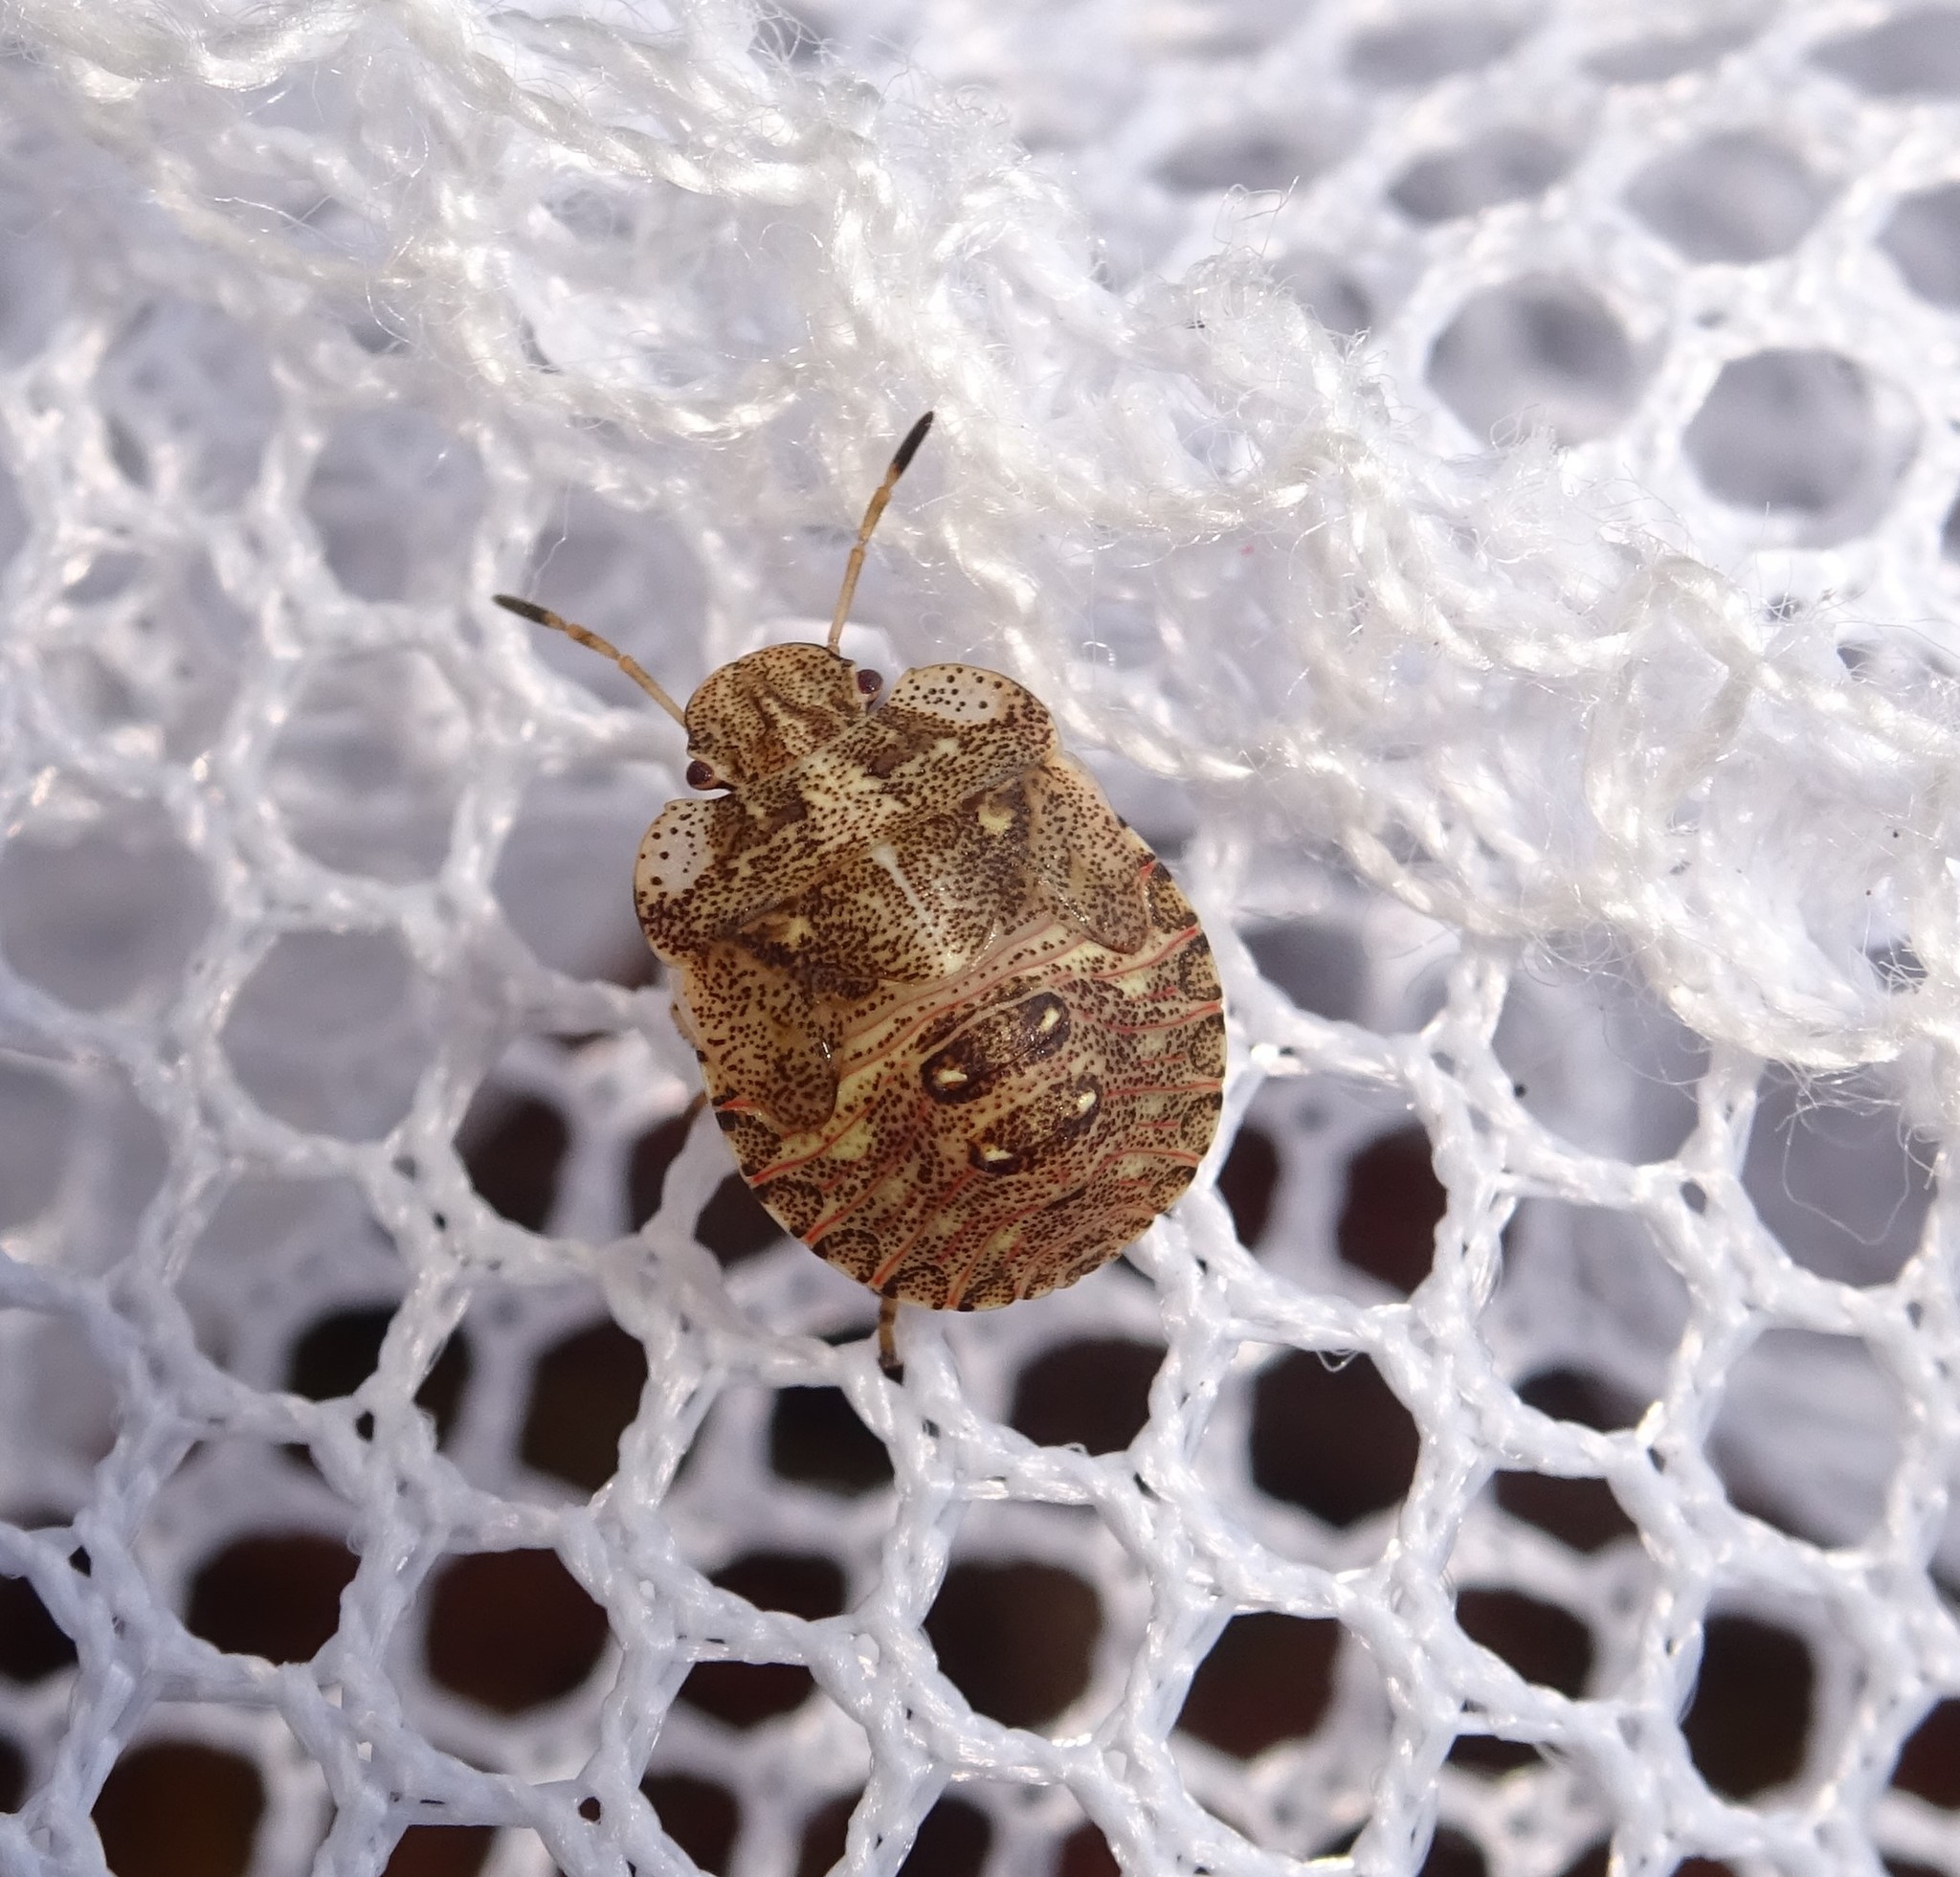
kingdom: Animalia
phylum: Arthropoda
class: Insecta
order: Hemiptera
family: Pentatomidae
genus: Dyroderes
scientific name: Dyroderes umbraculatus
